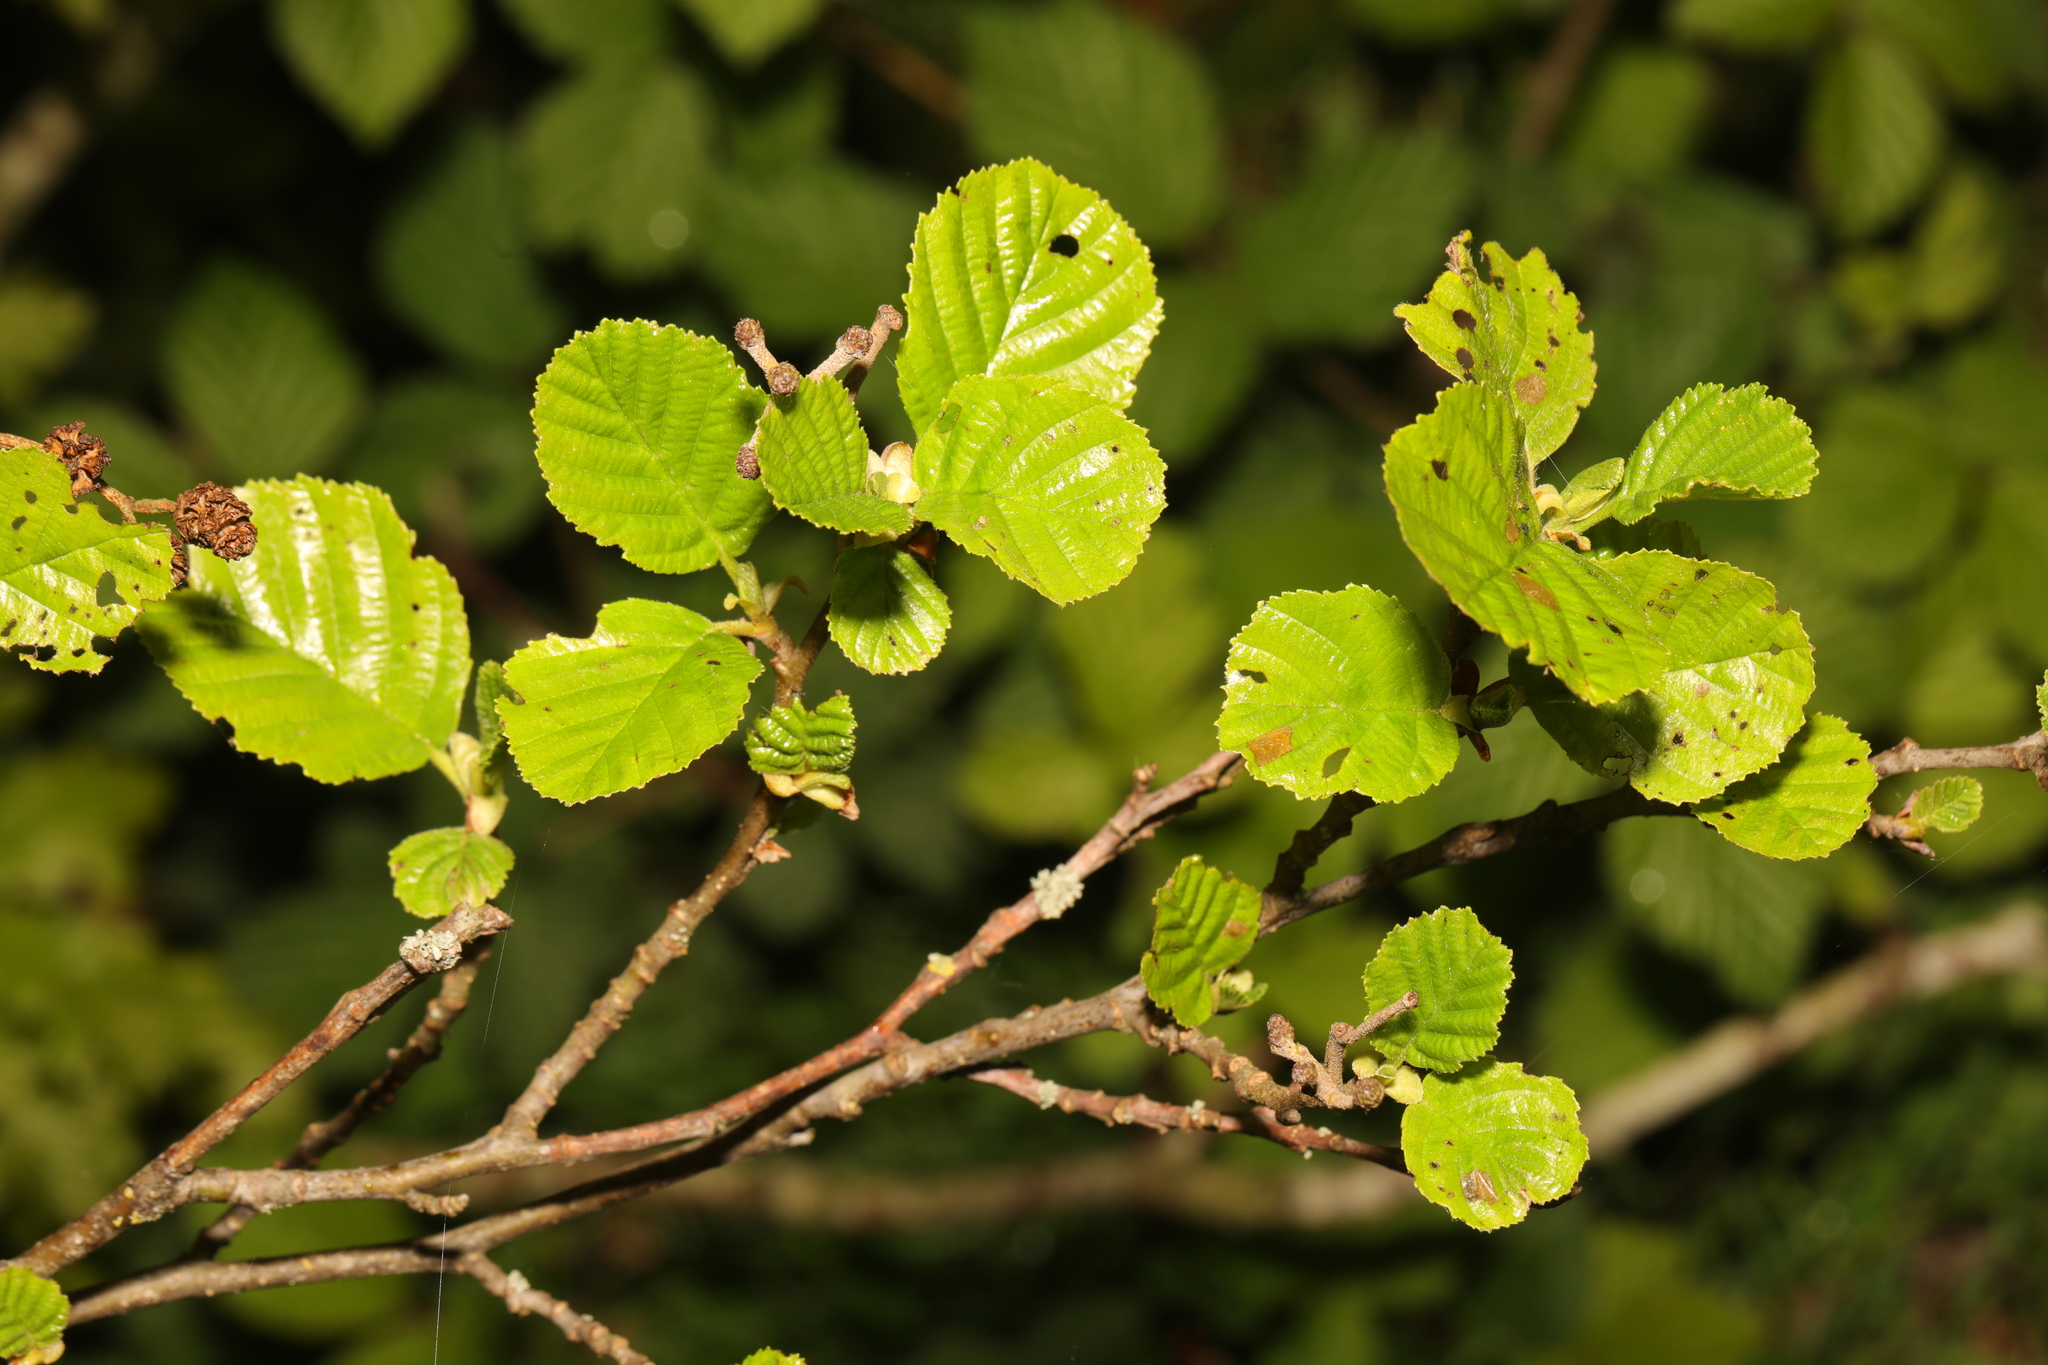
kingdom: Plantae
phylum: Tracheophyta
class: Magnoliopsida
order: Fagales
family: Betulaceae
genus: Alnus
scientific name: Alnus glutinosa
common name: Black alder
